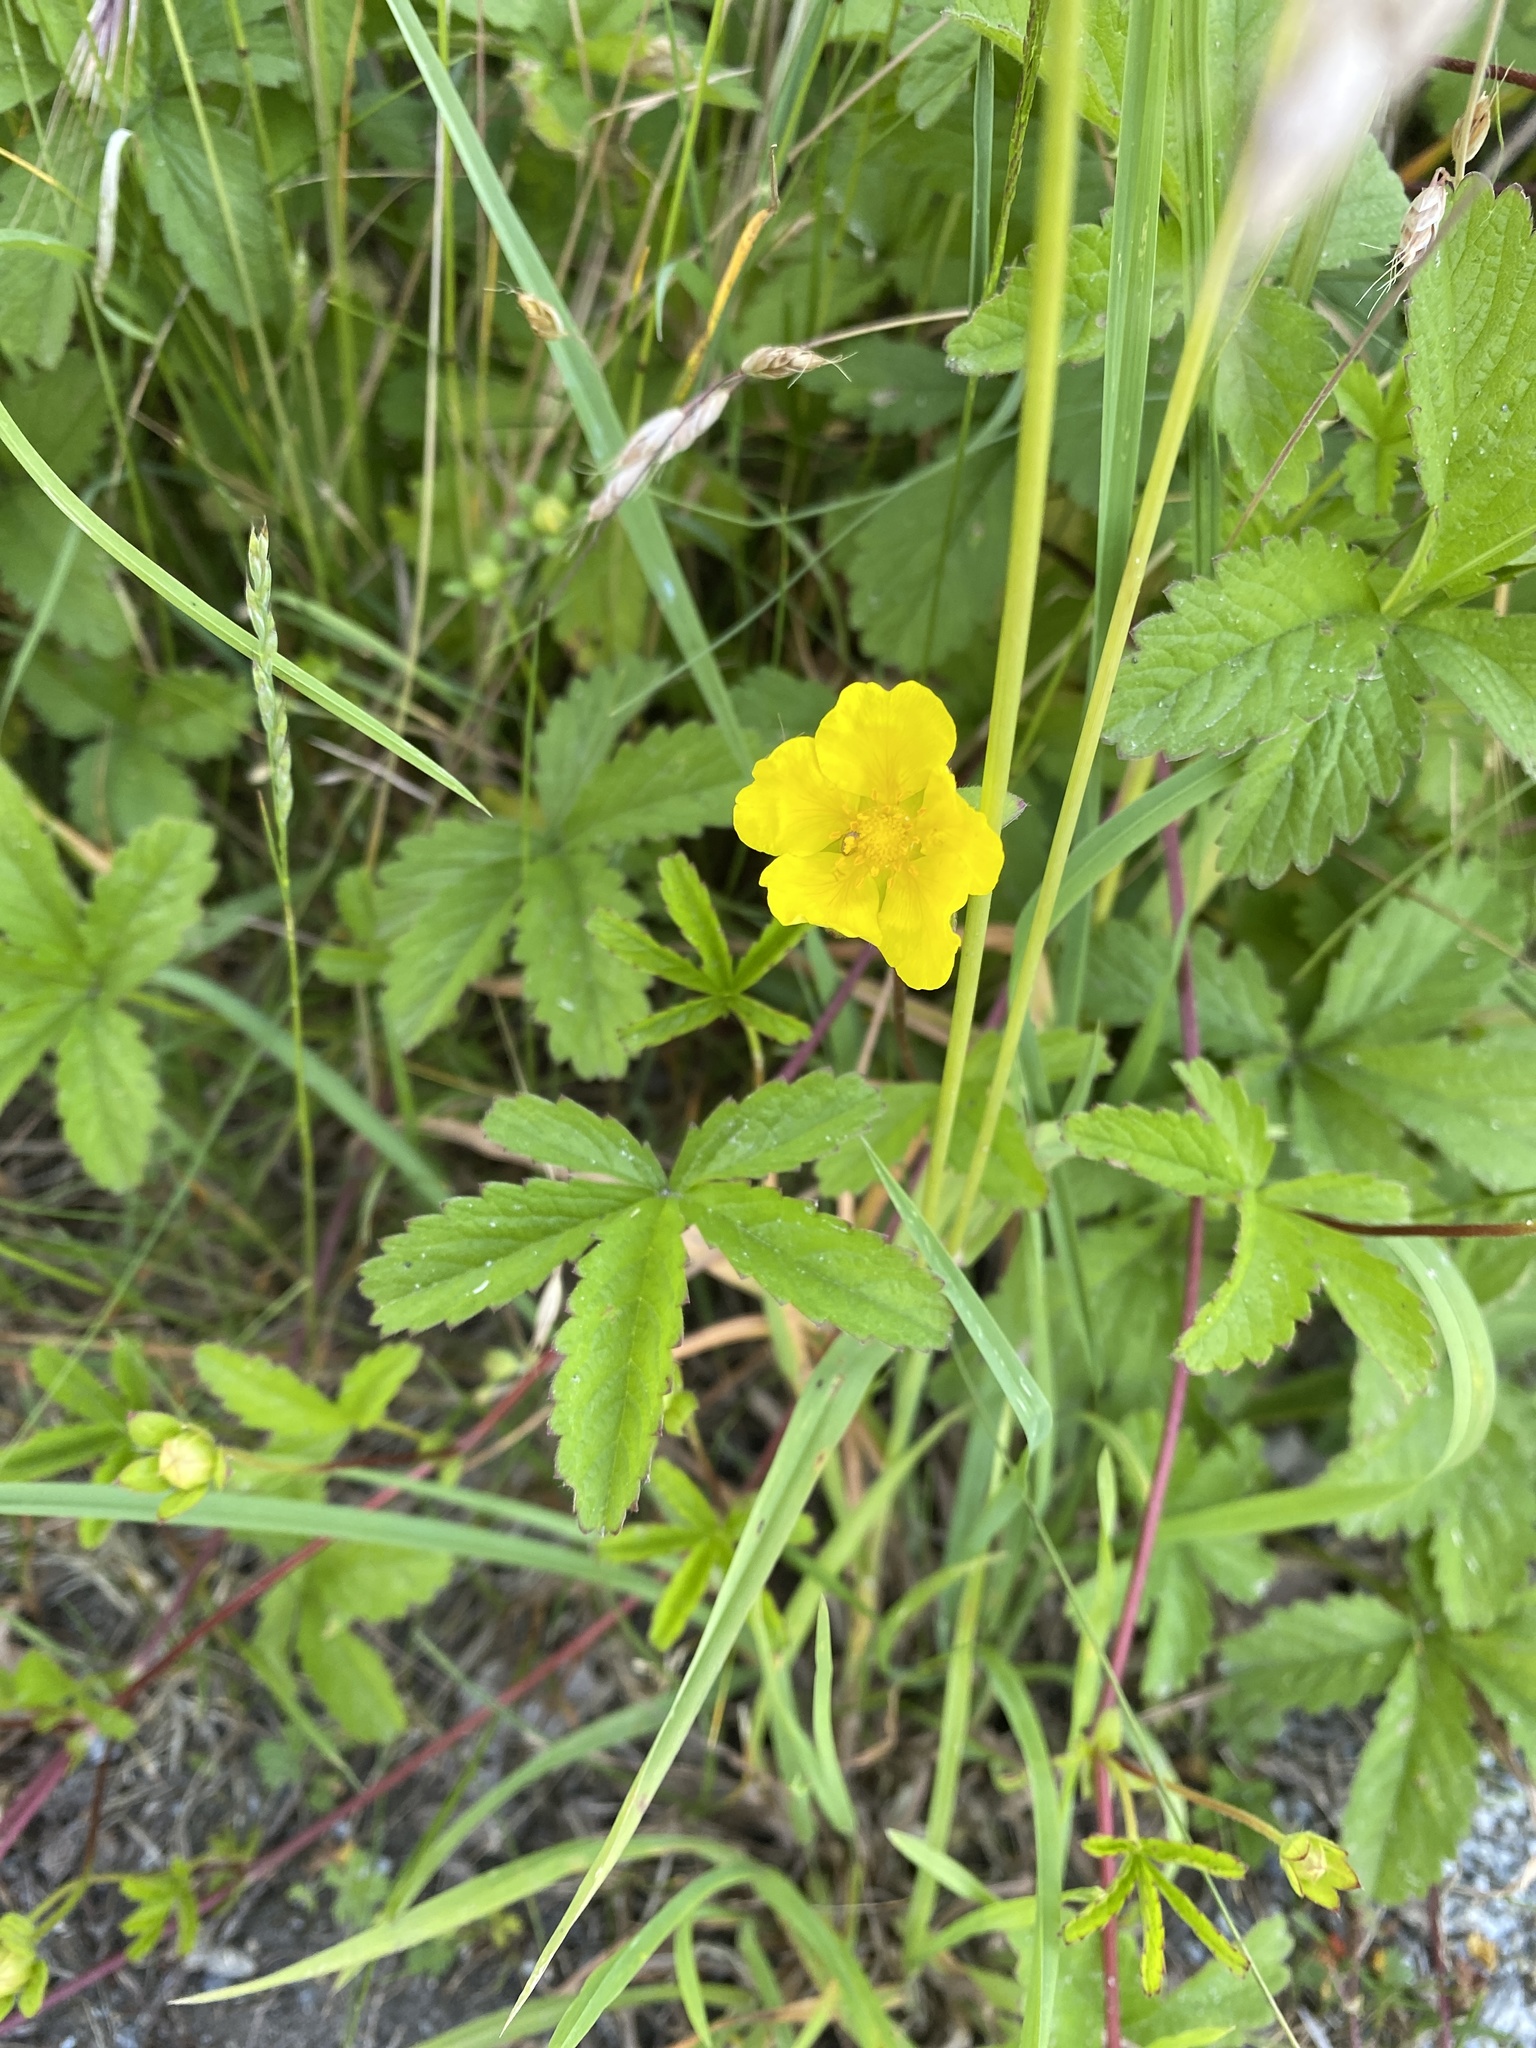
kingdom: Plantae
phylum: Tracheophyta
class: Magnoliopsida
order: Rosales
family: Rosaceae
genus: Potentilla
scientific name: Potentilla reptans
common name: Creeping cinquefoil
